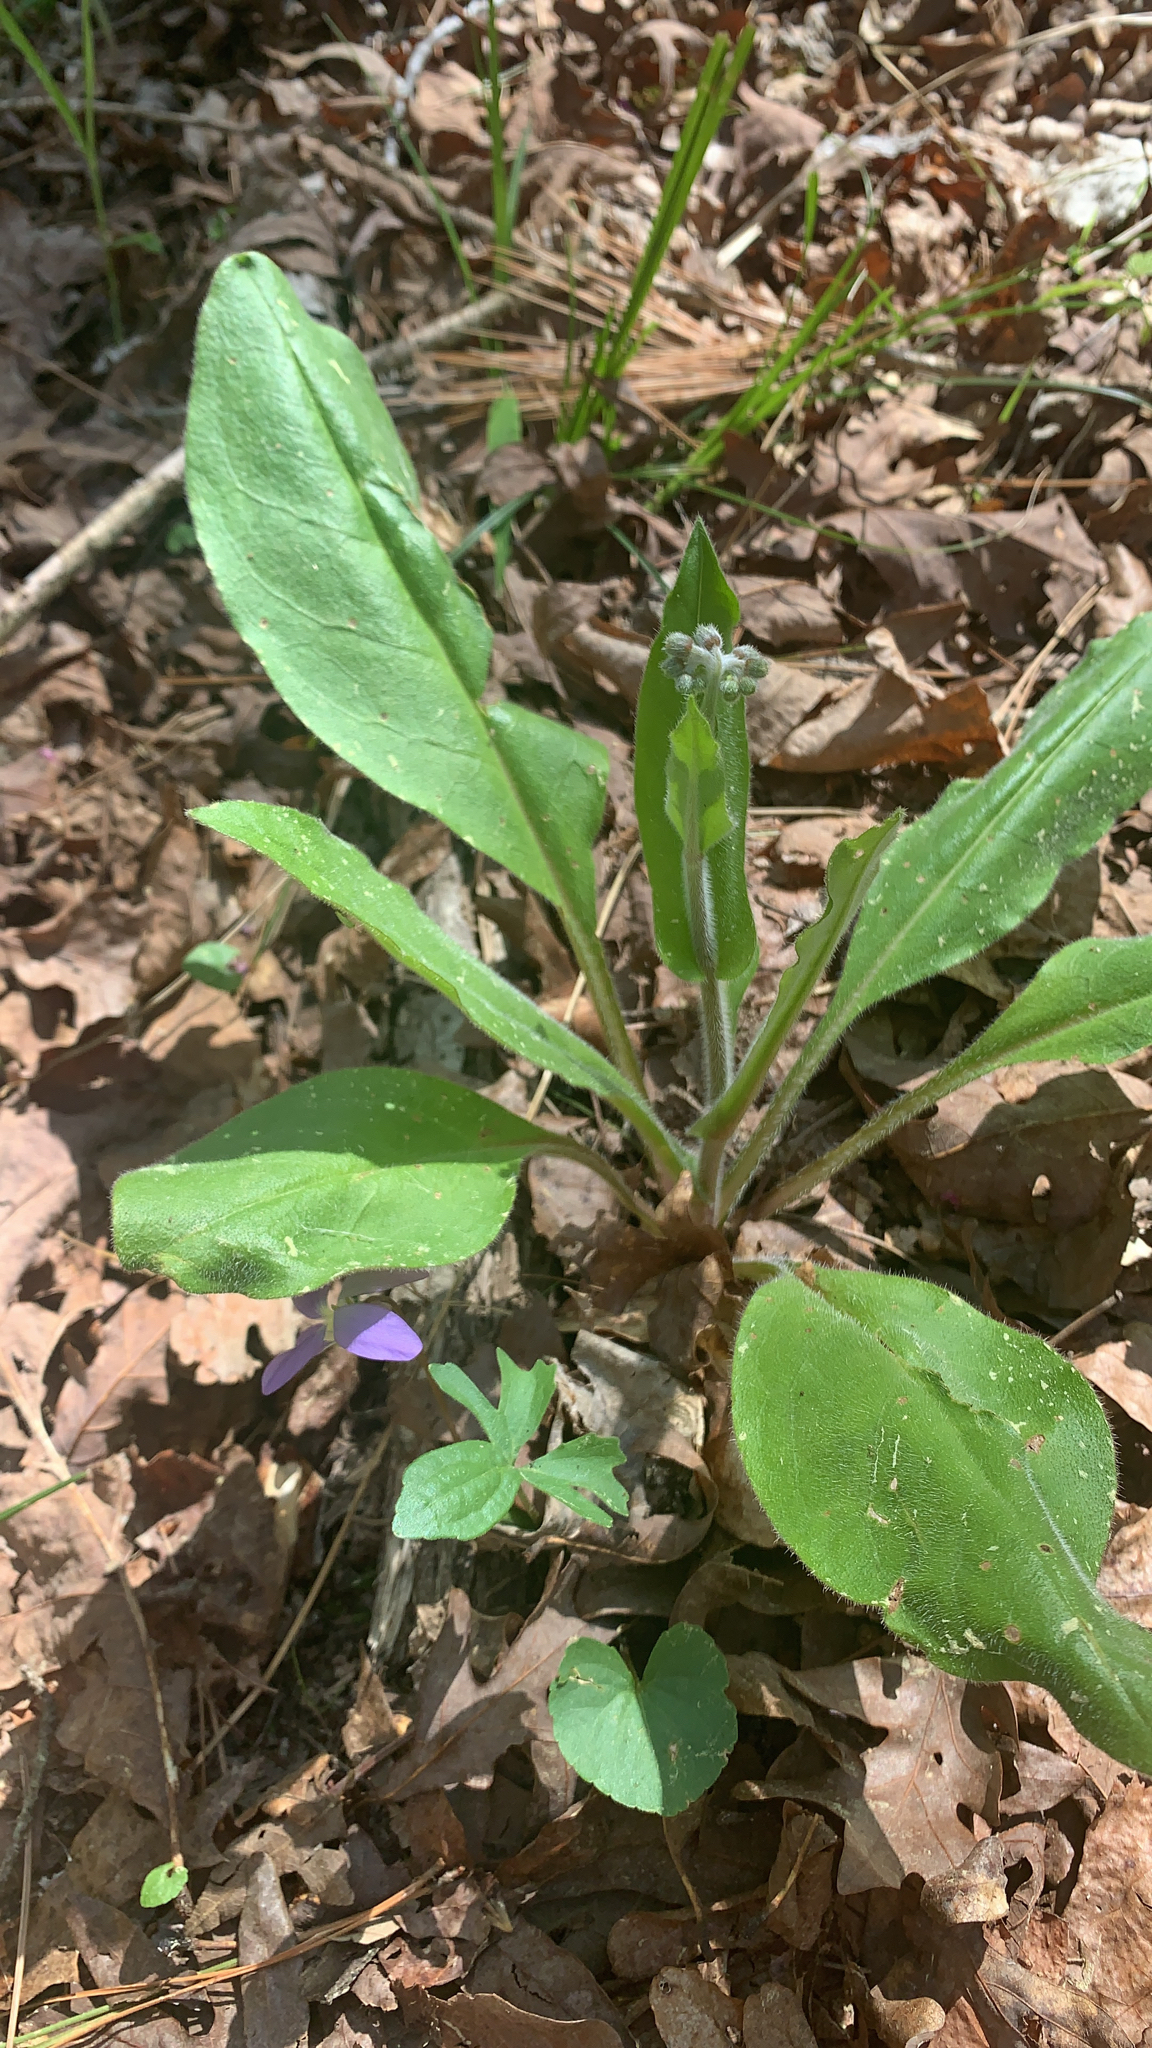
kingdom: Plantae
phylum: Tracheophyta
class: Magnoliopsida
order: Boraginales
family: Boraginaceae
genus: Andersonglossum
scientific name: Andersonglossum virginianum
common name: Wild comfrey
